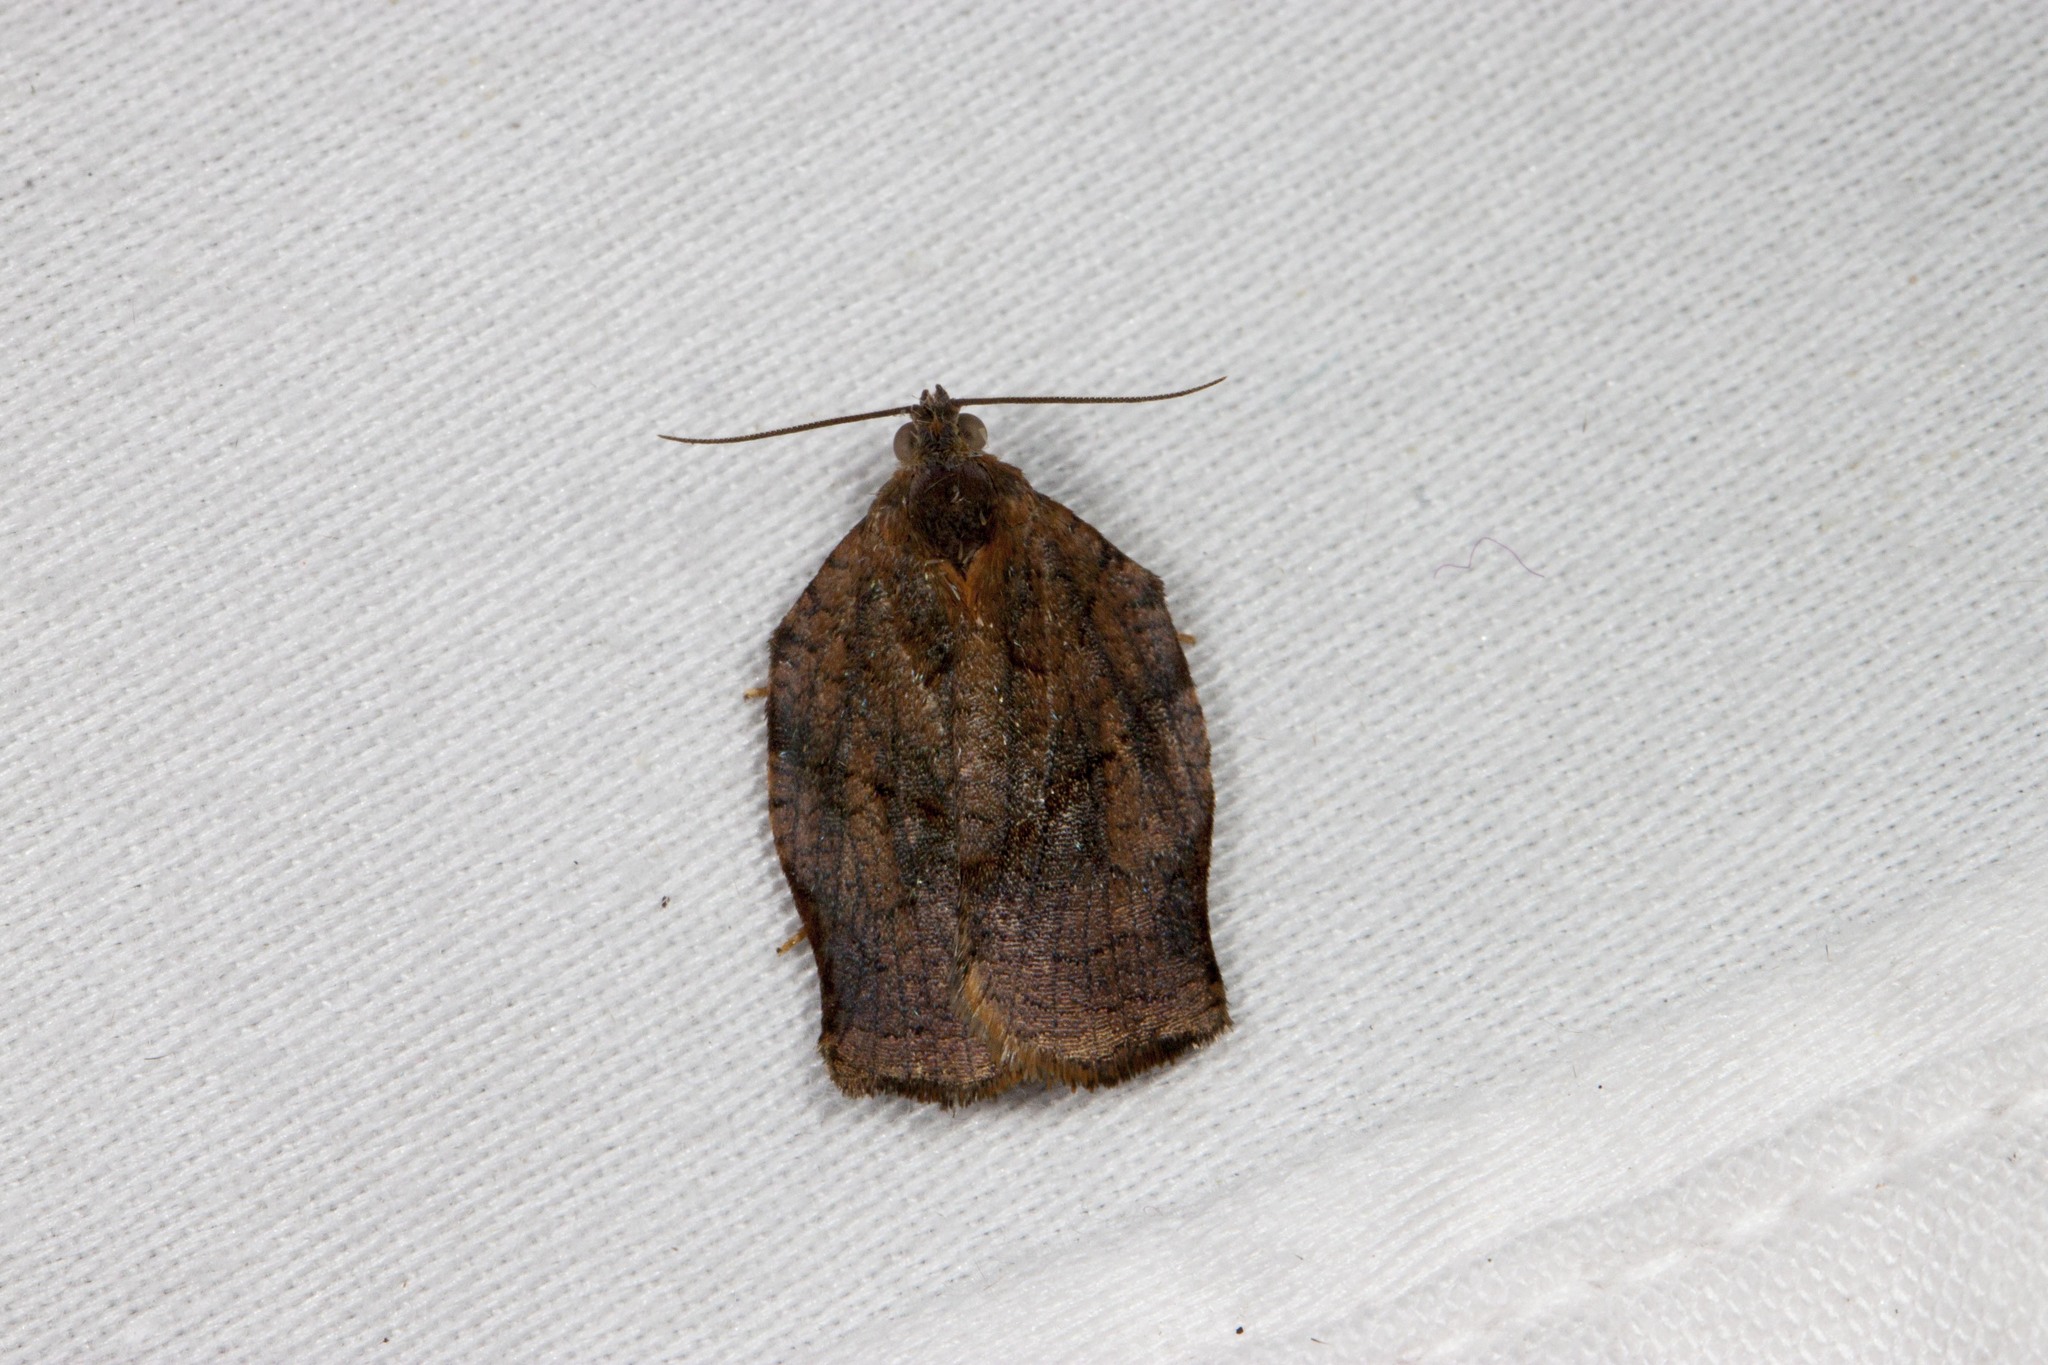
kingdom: Animalia
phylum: Arthropoda
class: Insecta
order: Lepidoptera
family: Tortricidae
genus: Archips
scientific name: Archips purpurana
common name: Omnivorous leafroller
